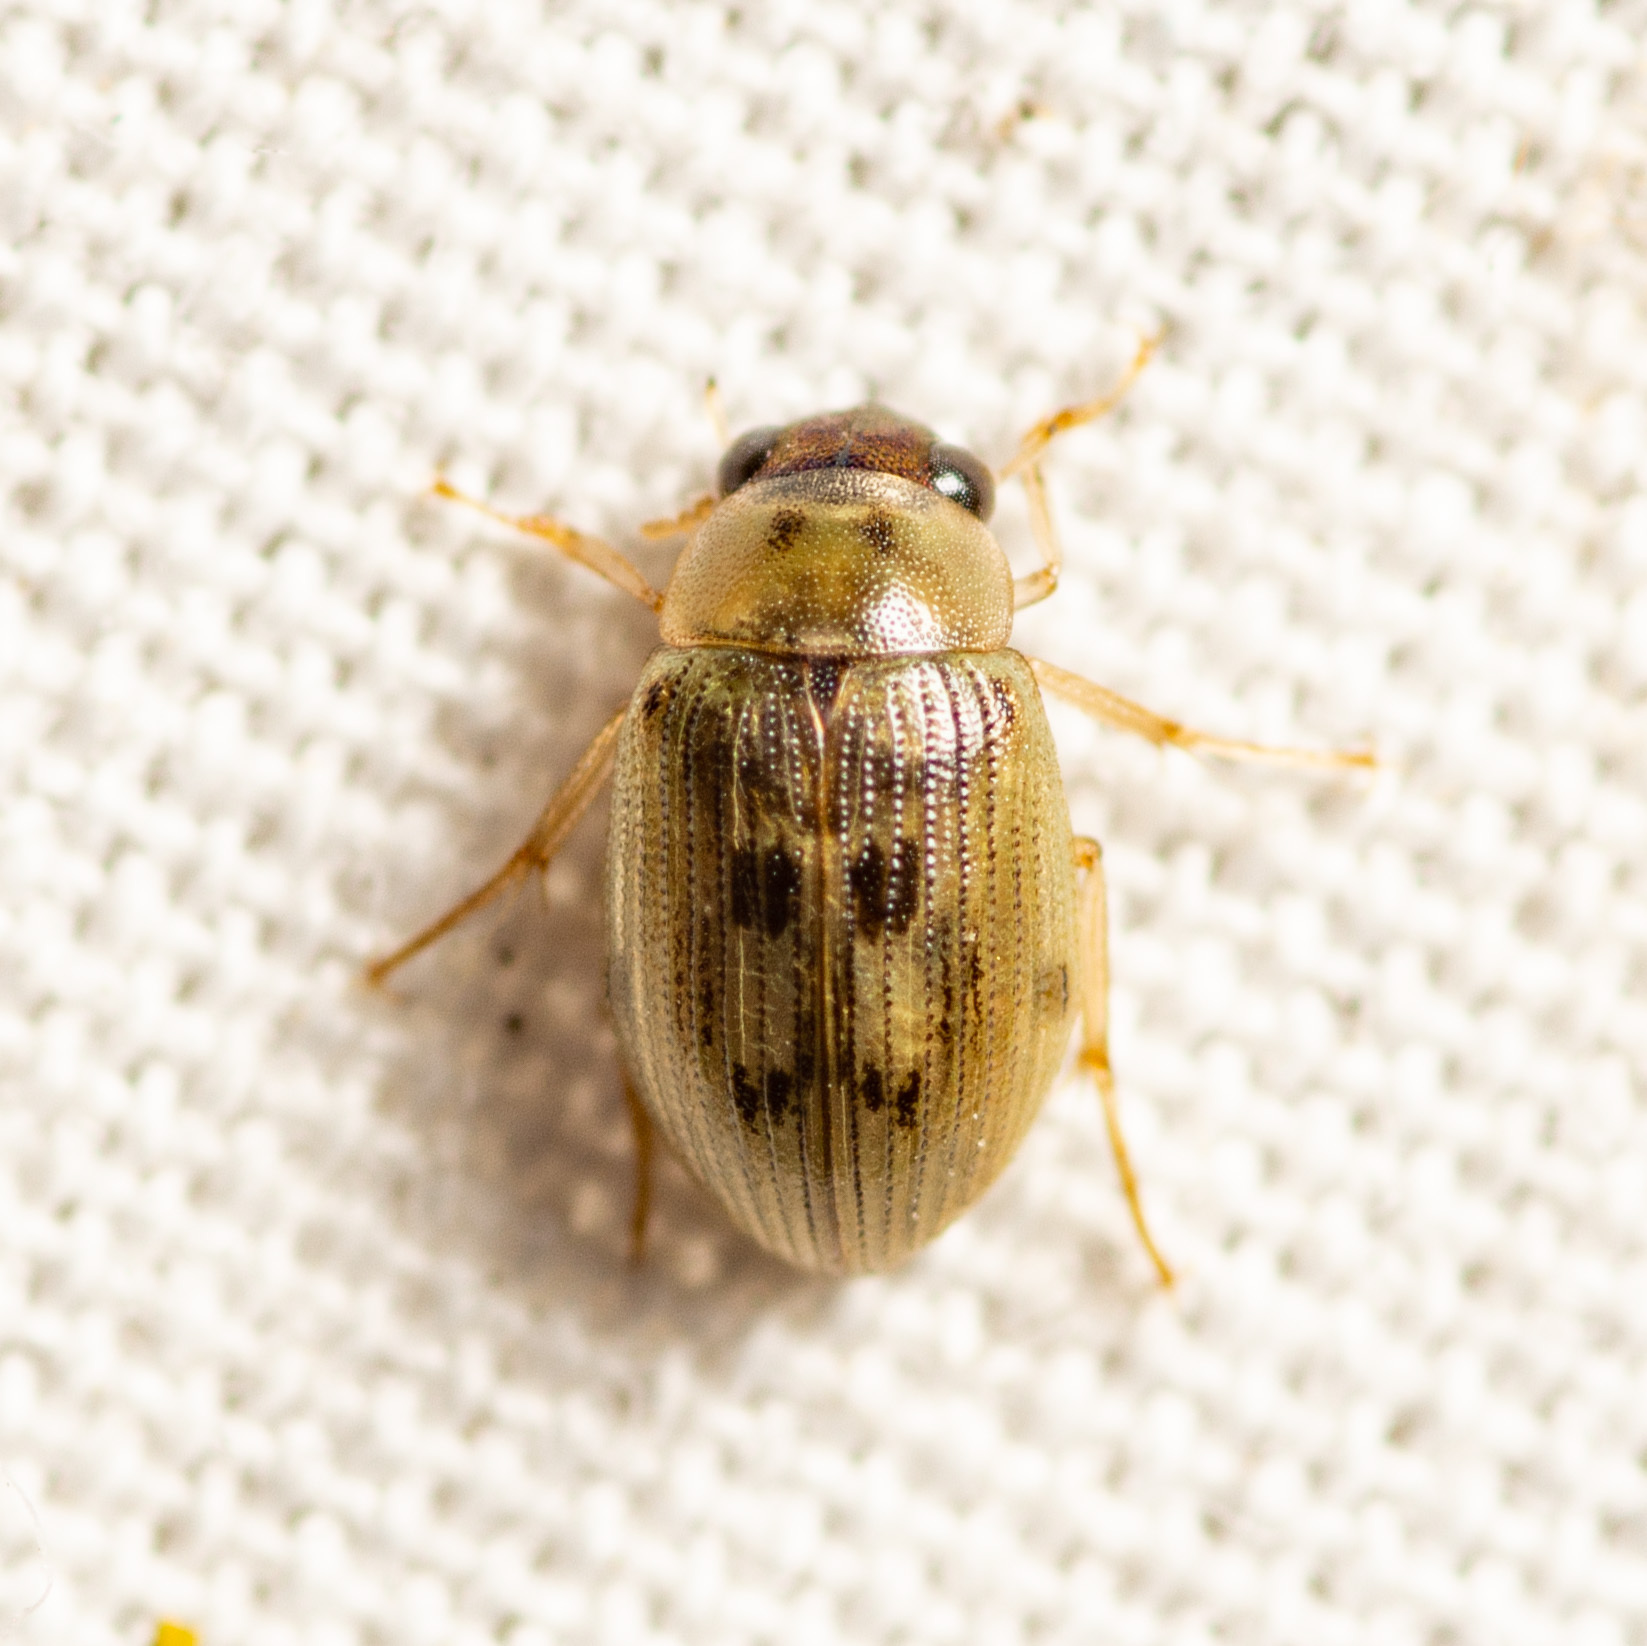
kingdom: Animalia
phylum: Arthropoda
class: Insecta
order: Coleoptera
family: Hydrophilidae
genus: Berosus
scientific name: Berosus
